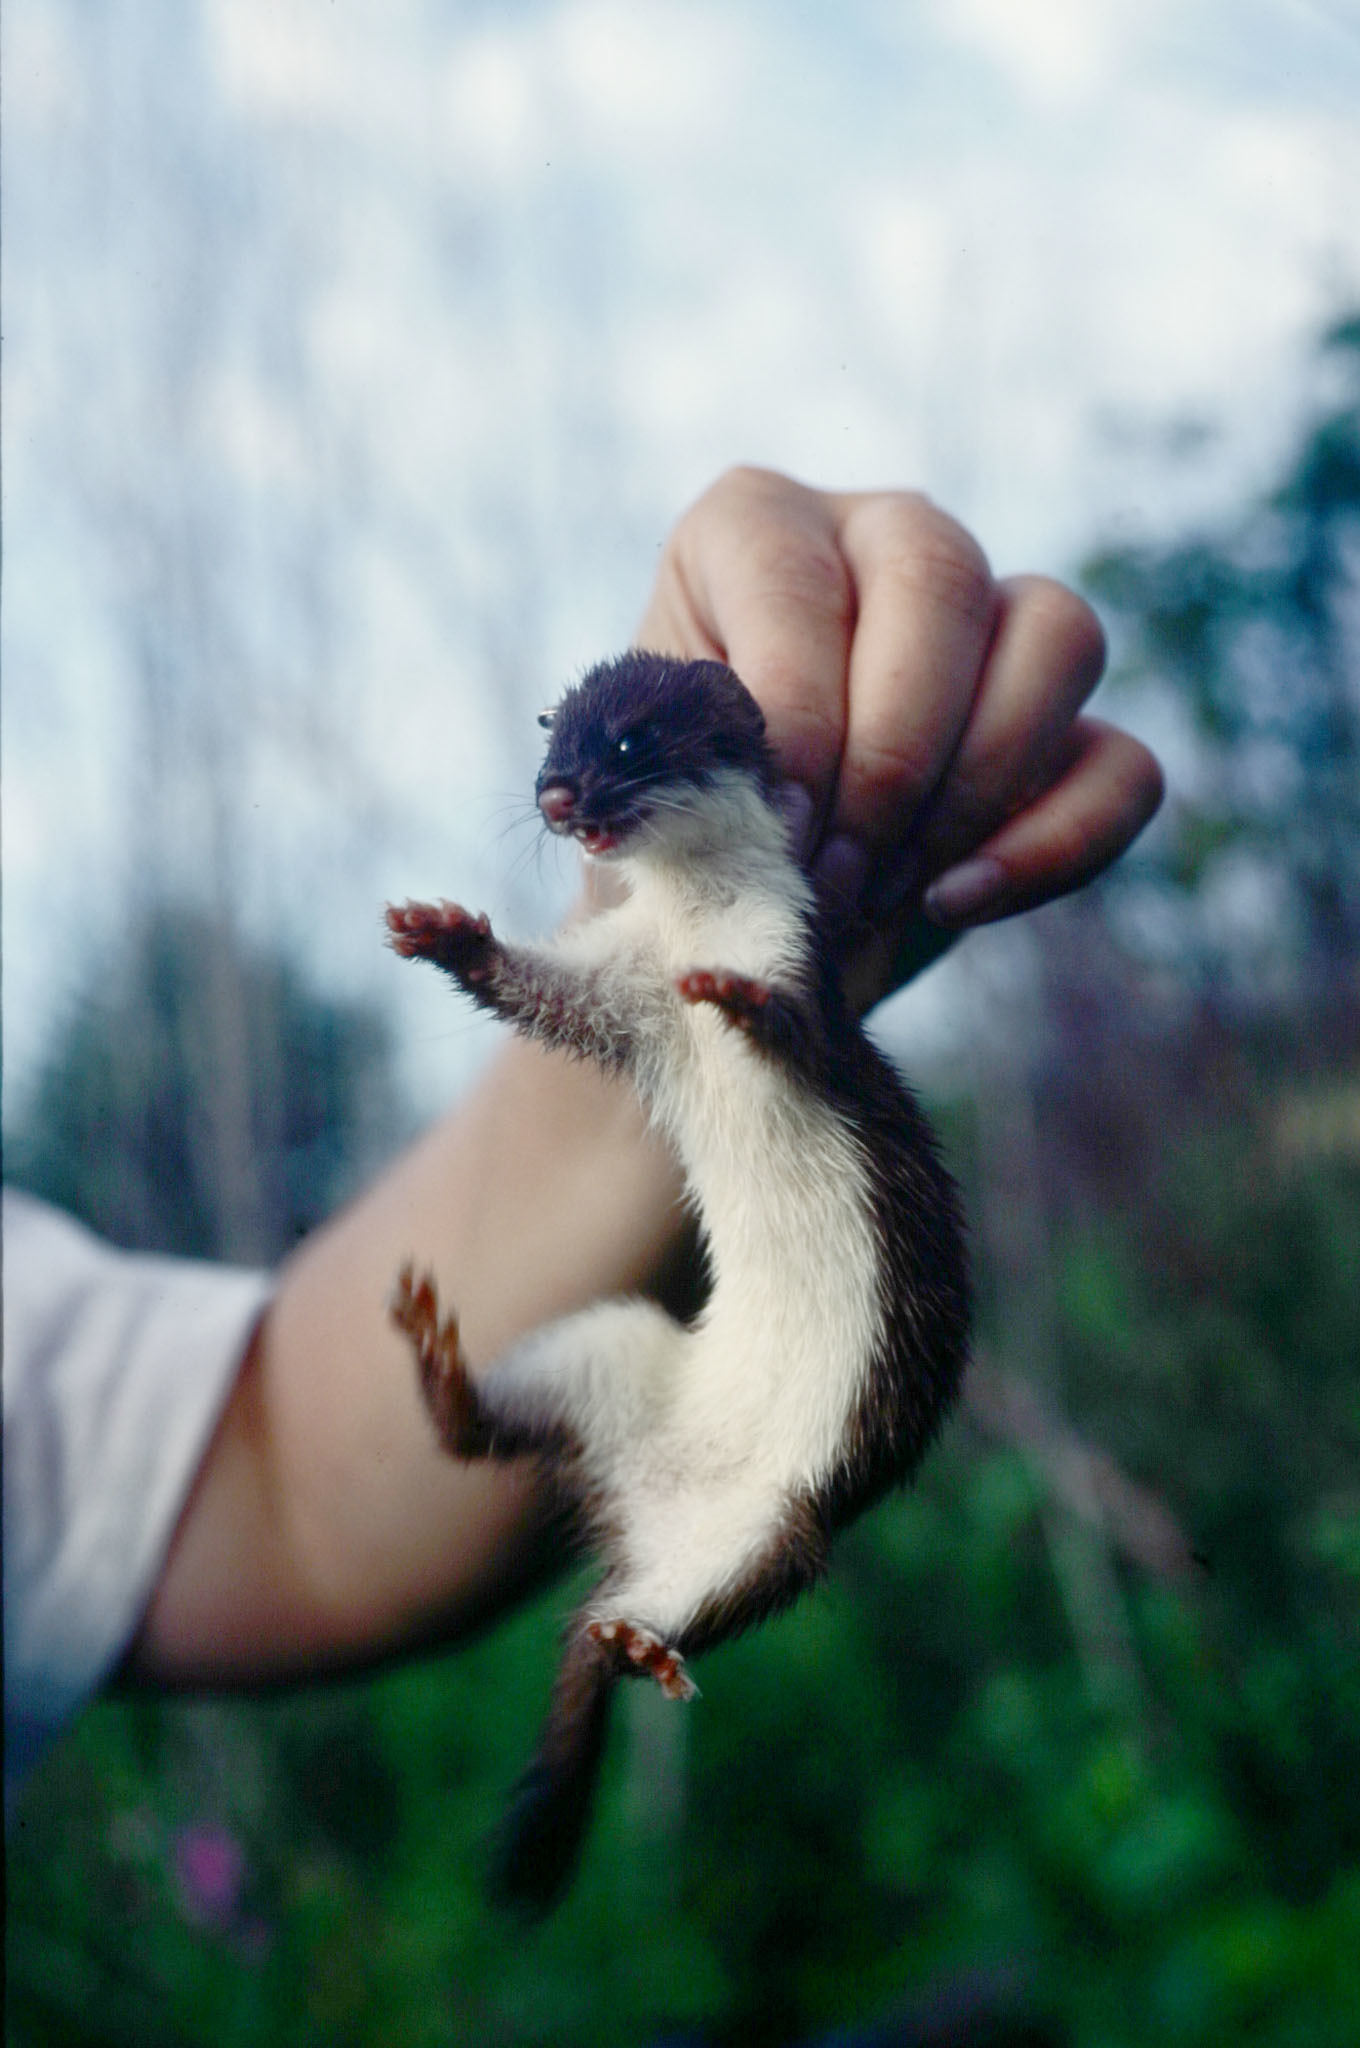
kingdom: Animalia
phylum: Chordata
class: Mammalia
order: Carnivora
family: Mustelidae
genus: Mustela
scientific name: Mustela erminea
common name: Stoat
